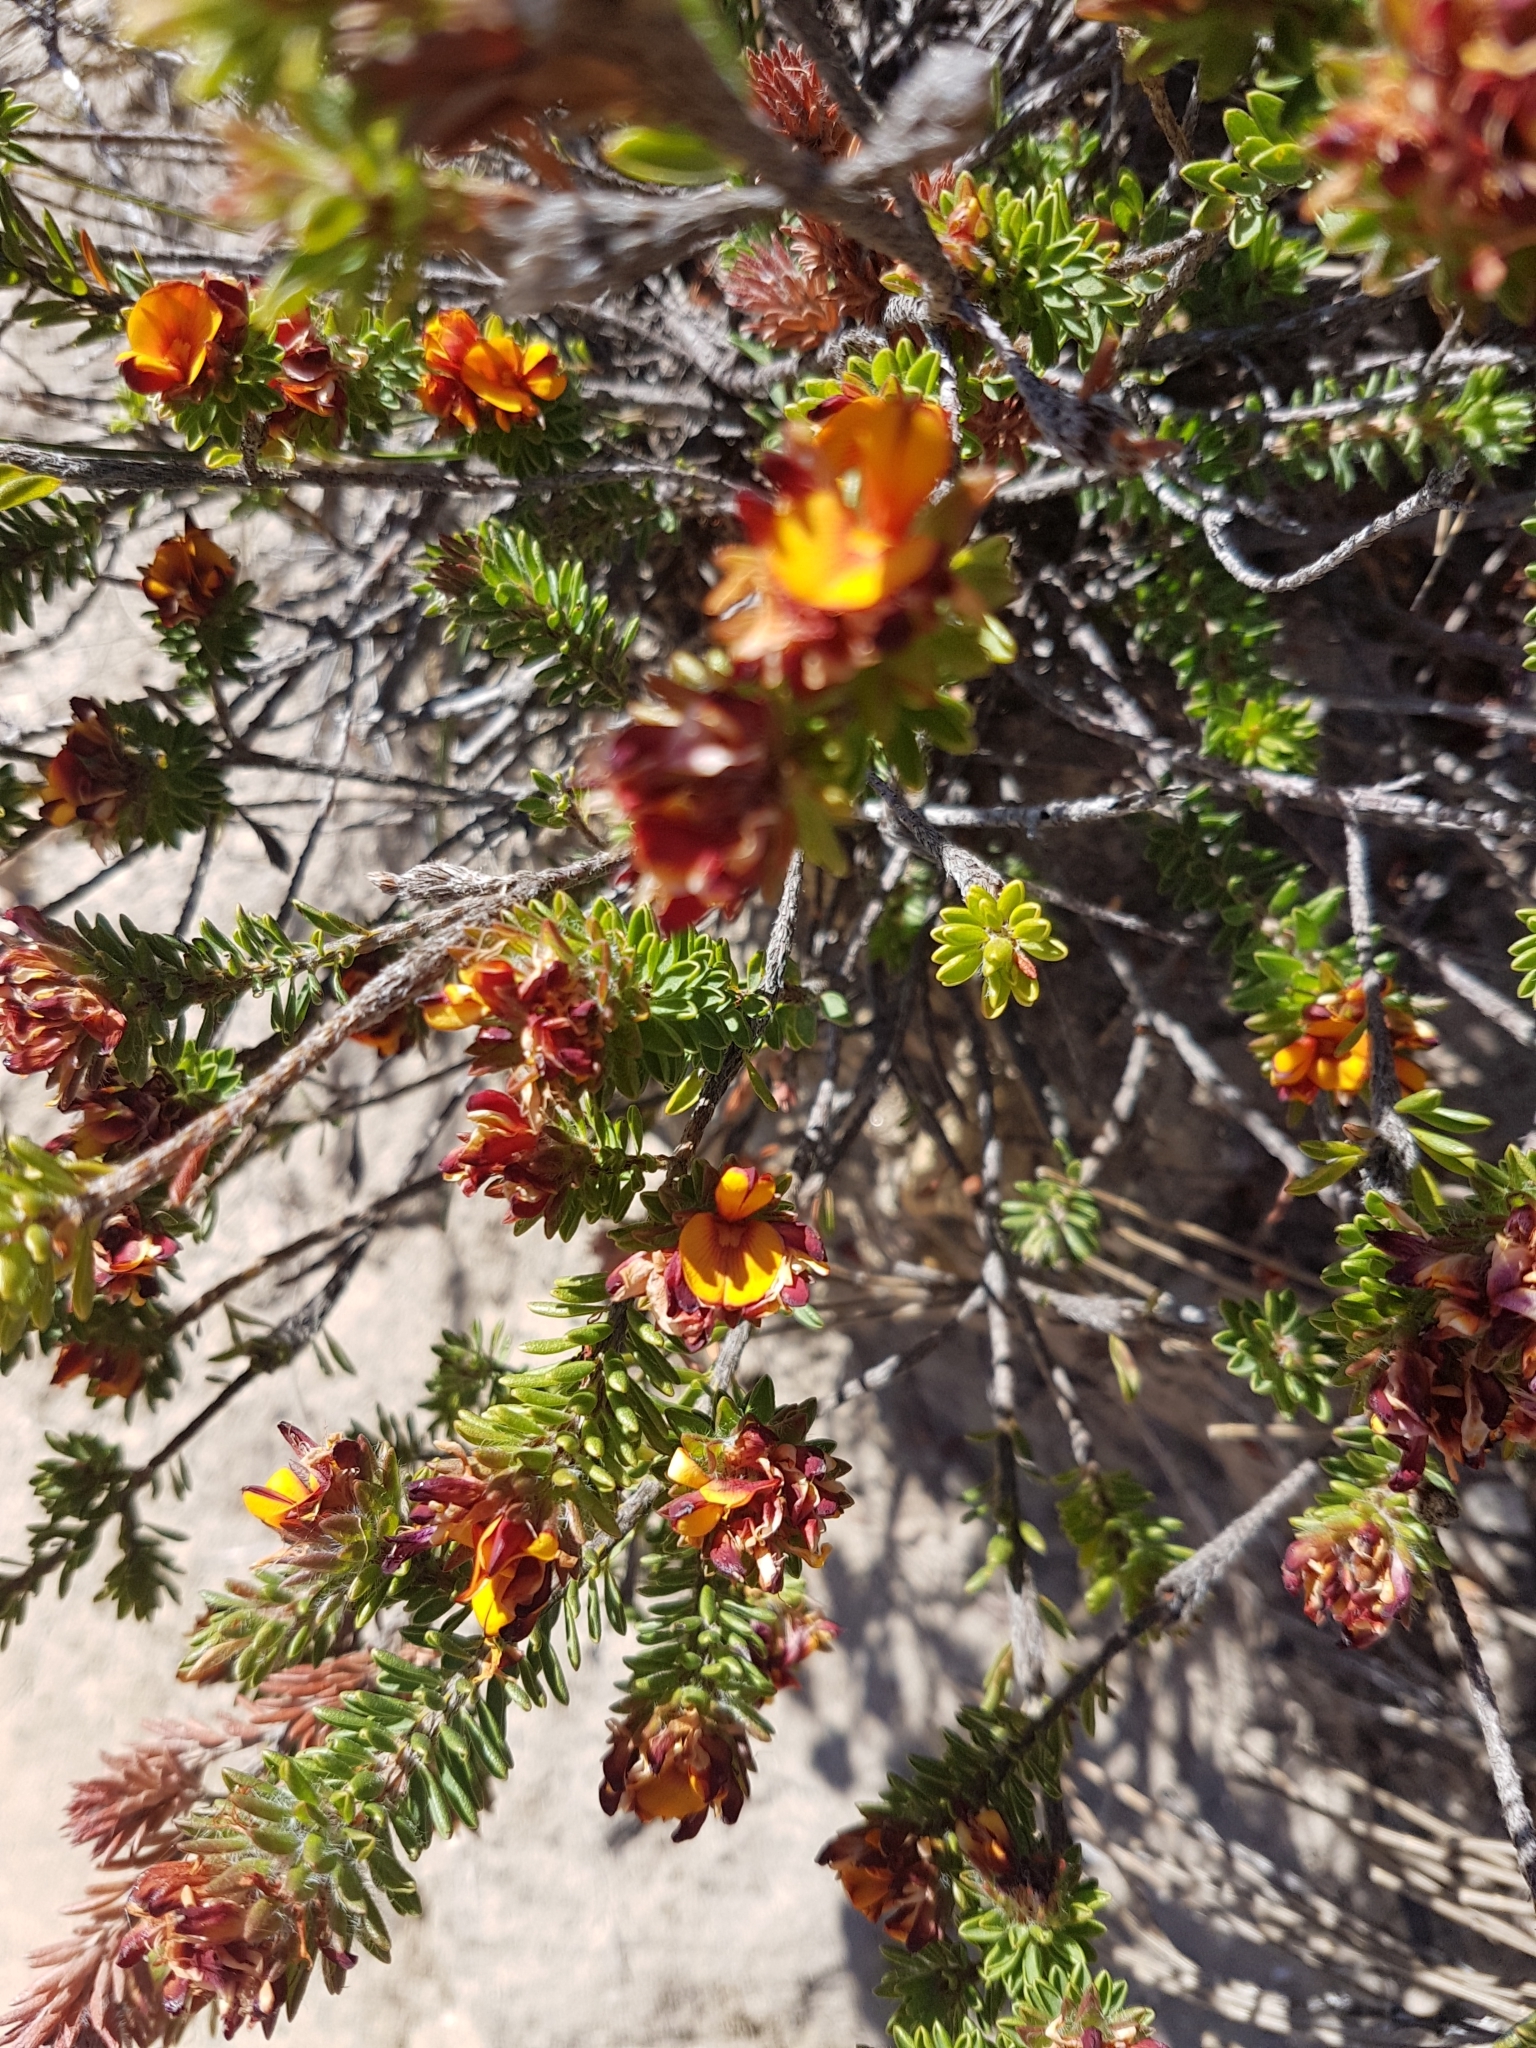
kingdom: Plantae
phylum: Tracheophyta
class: Magnoliopsida
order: Fabales
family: Fabaceae
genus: Pultenaea
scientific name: Pultenaea tuberculata
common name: Wreath bush-pea
